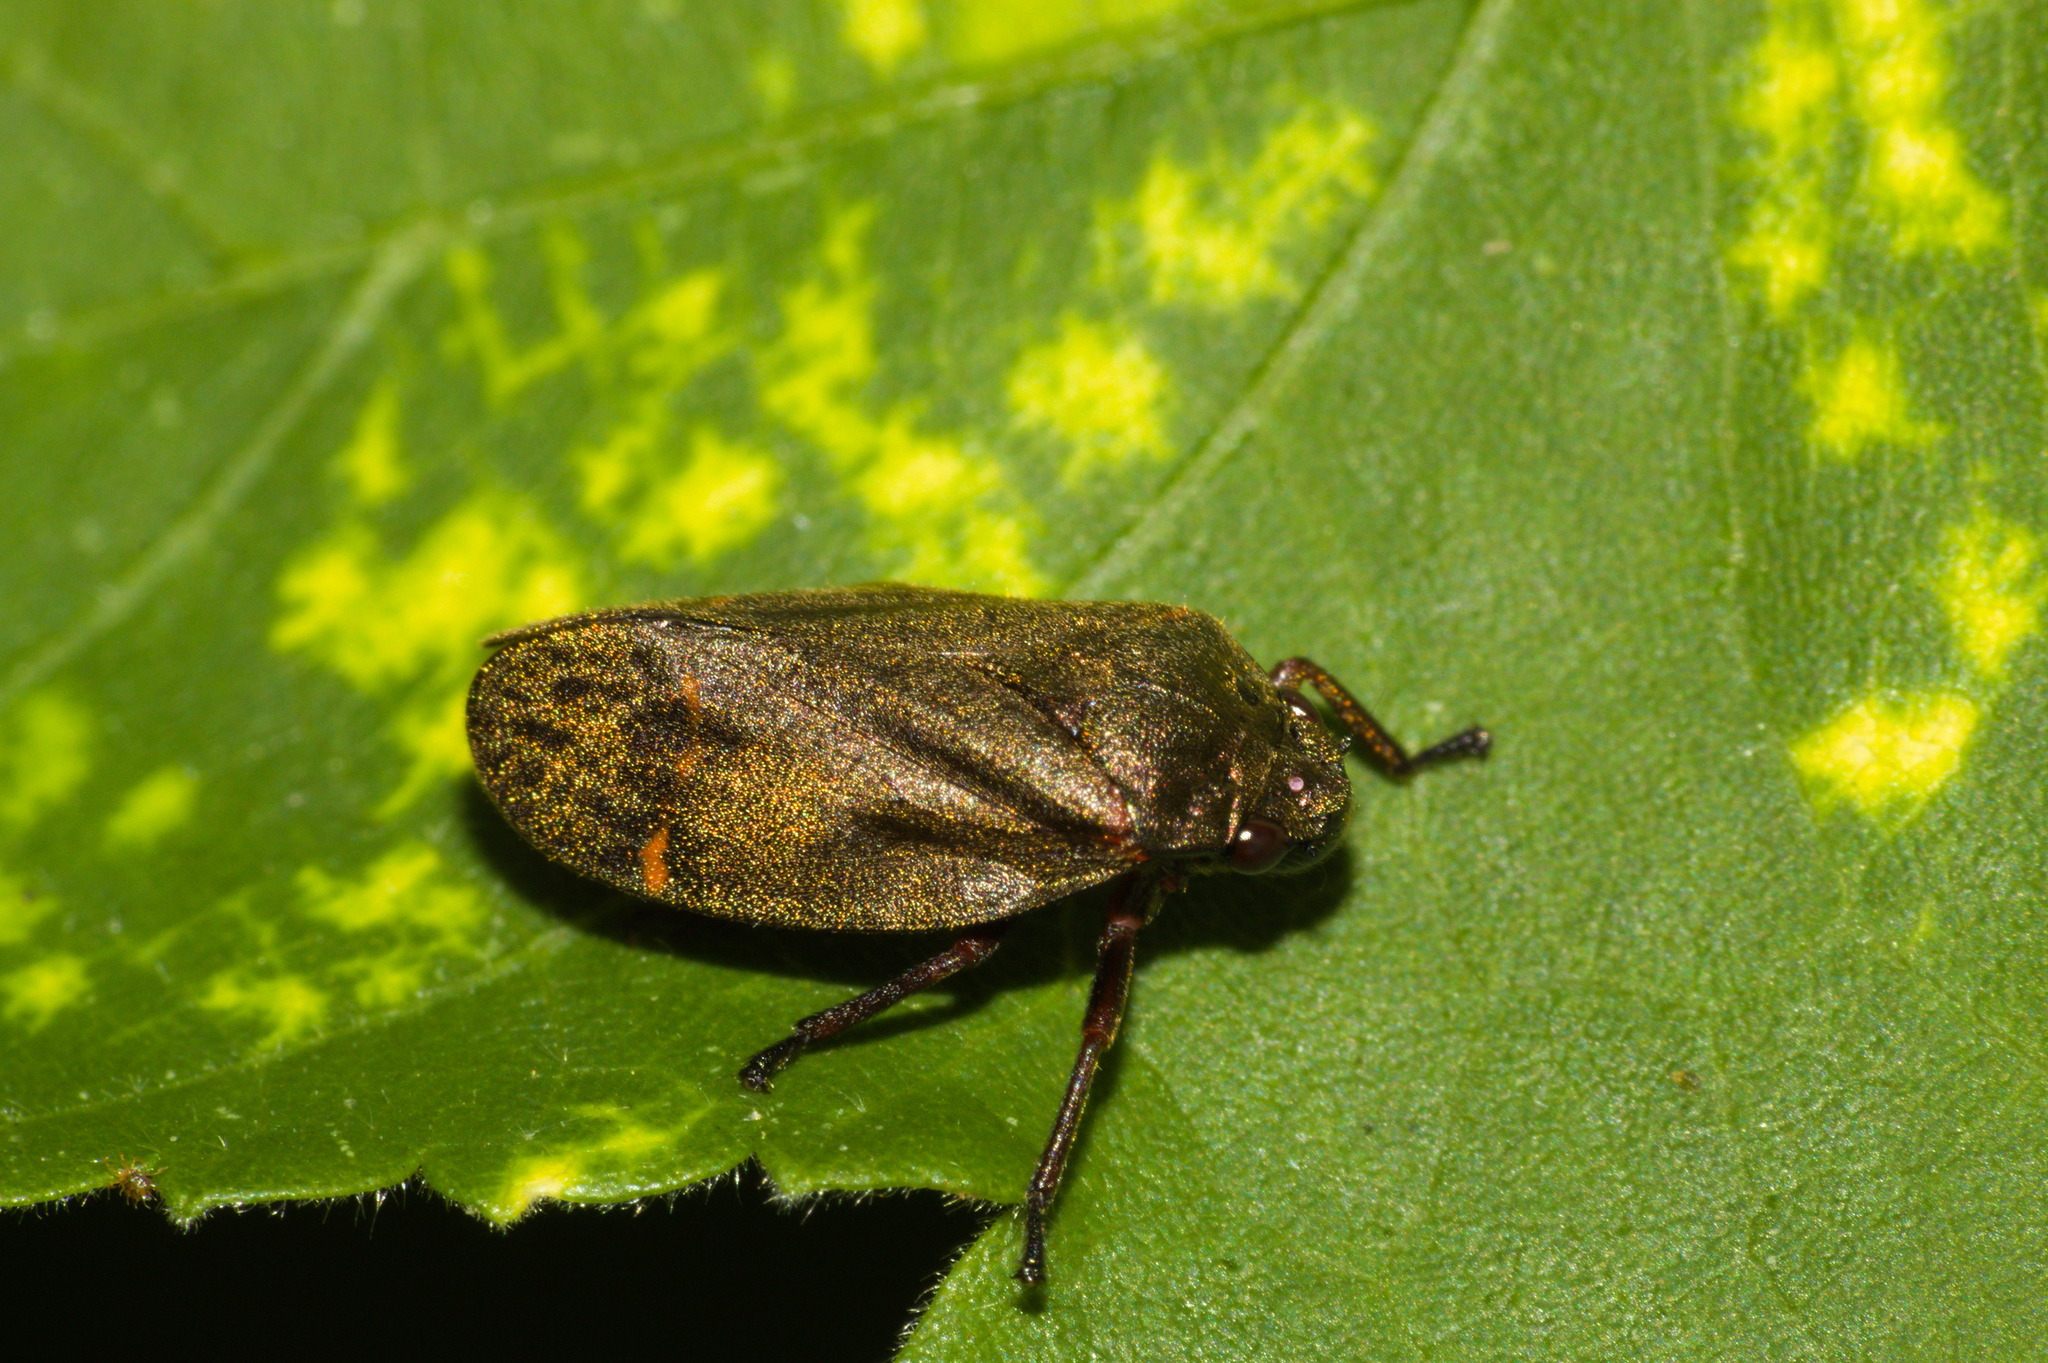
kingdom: Animalia
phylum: Arthropoda
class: Insecta
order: Hemiptera
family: Cercopidae
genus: Deois
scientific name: Deois schach
